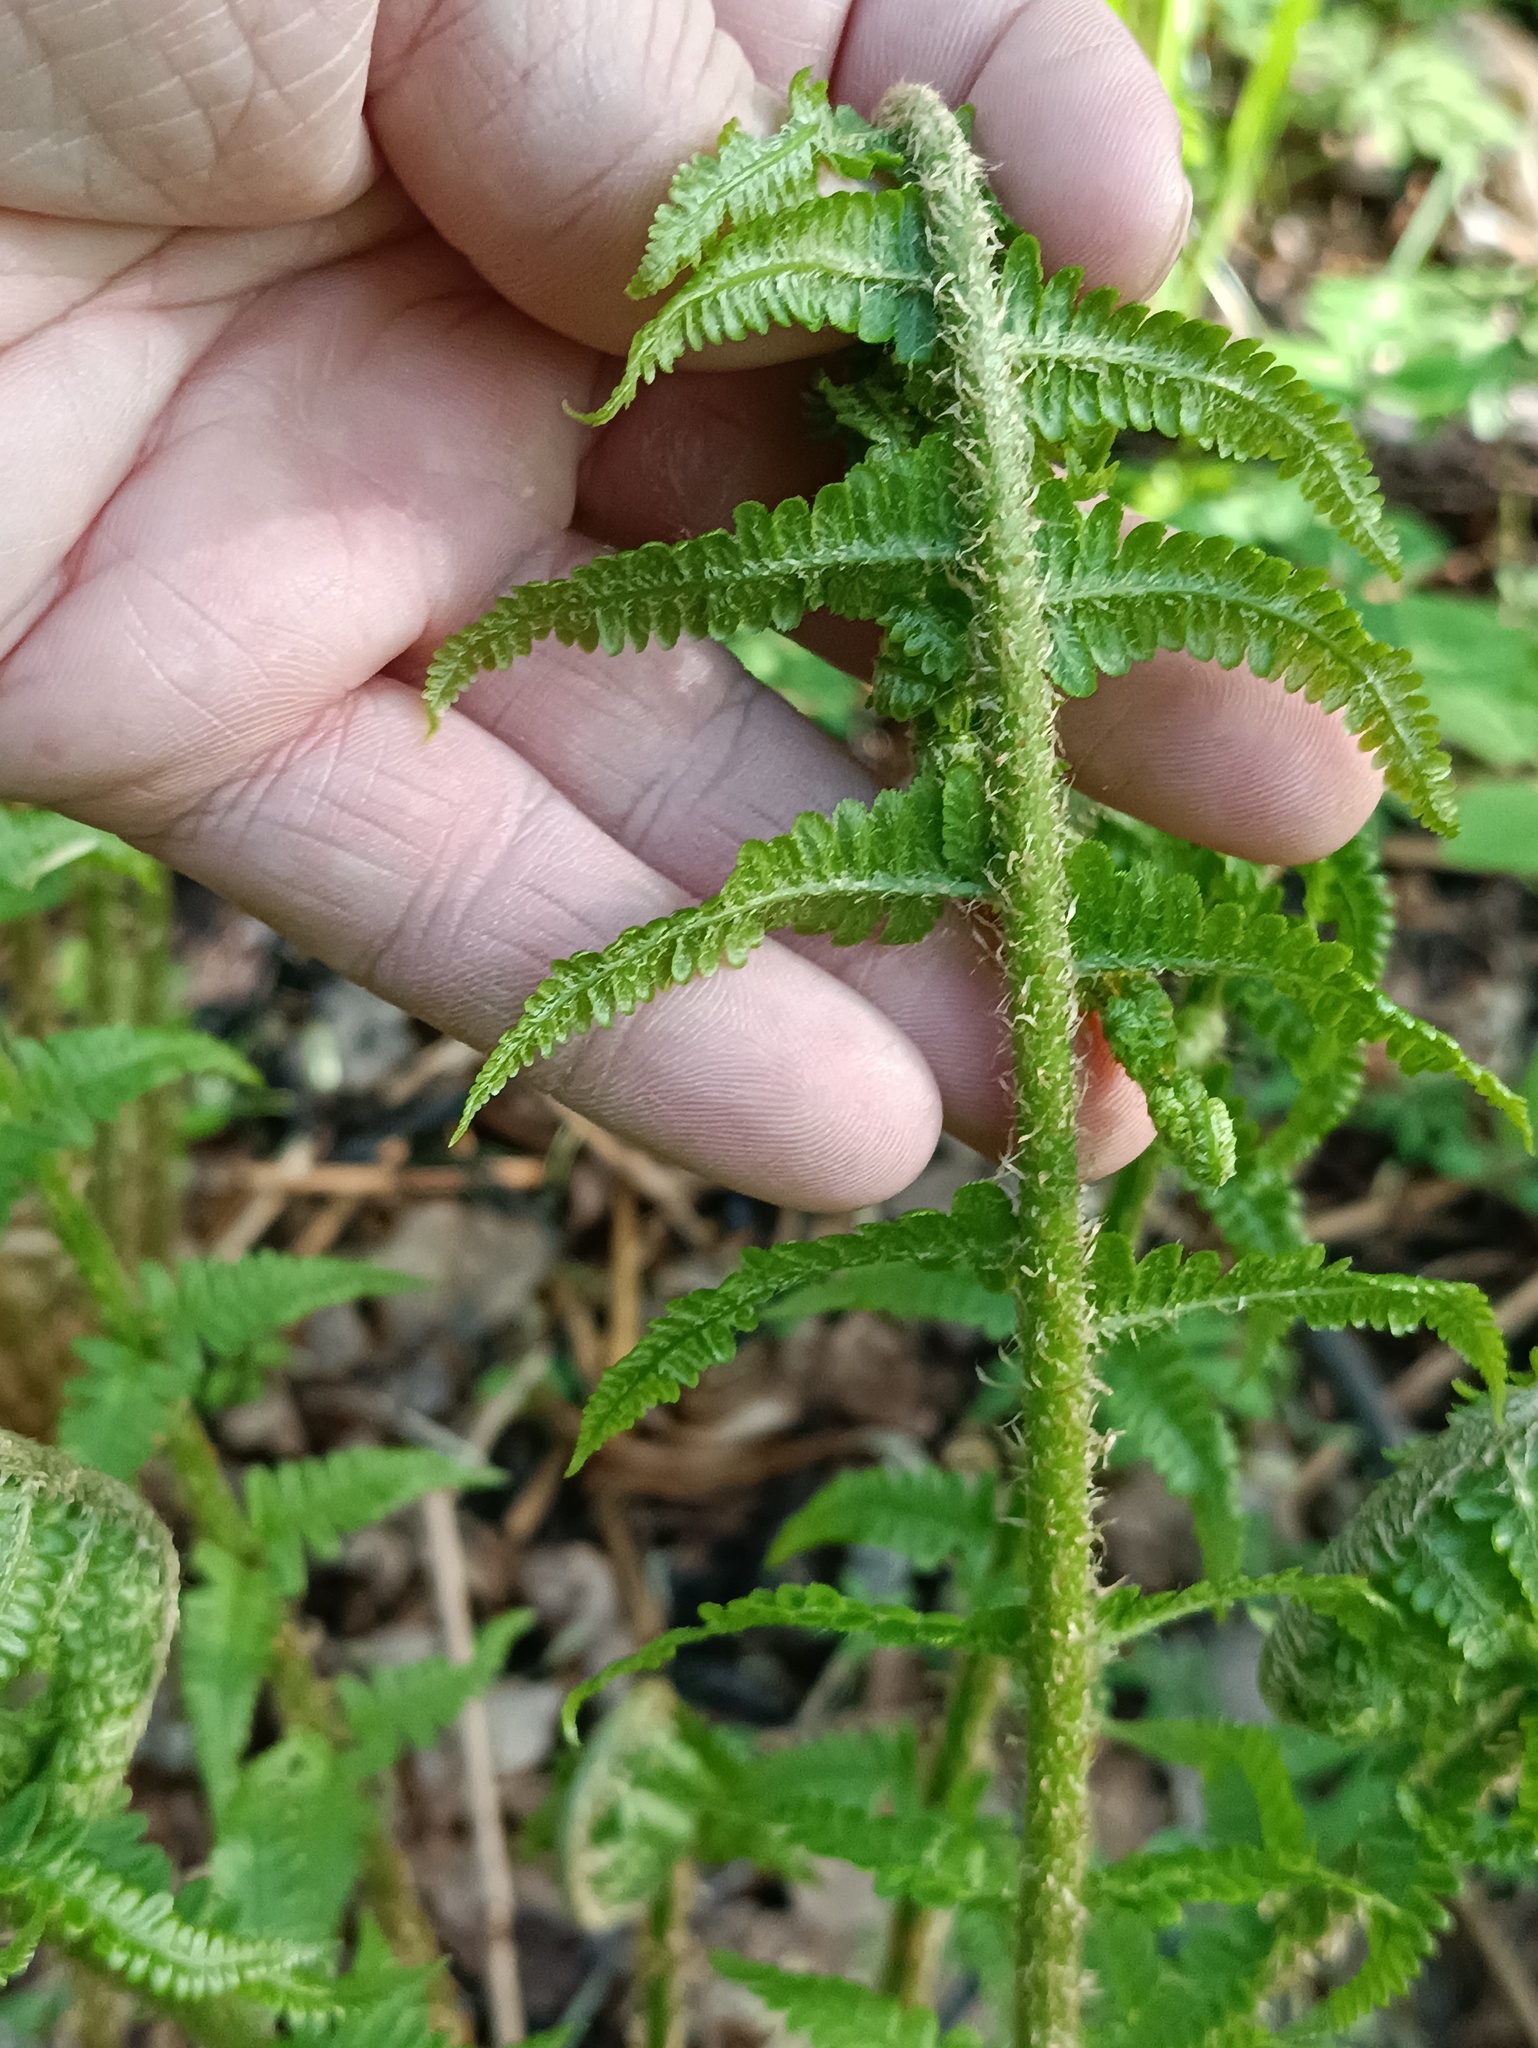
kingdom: Plantae
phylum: Tracheophyta
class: Polypodiopsida
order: Polypodiales
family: Dryopteridaceae
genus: Dryopteris
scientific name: Dryopteris filix-mas
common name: Male fern
